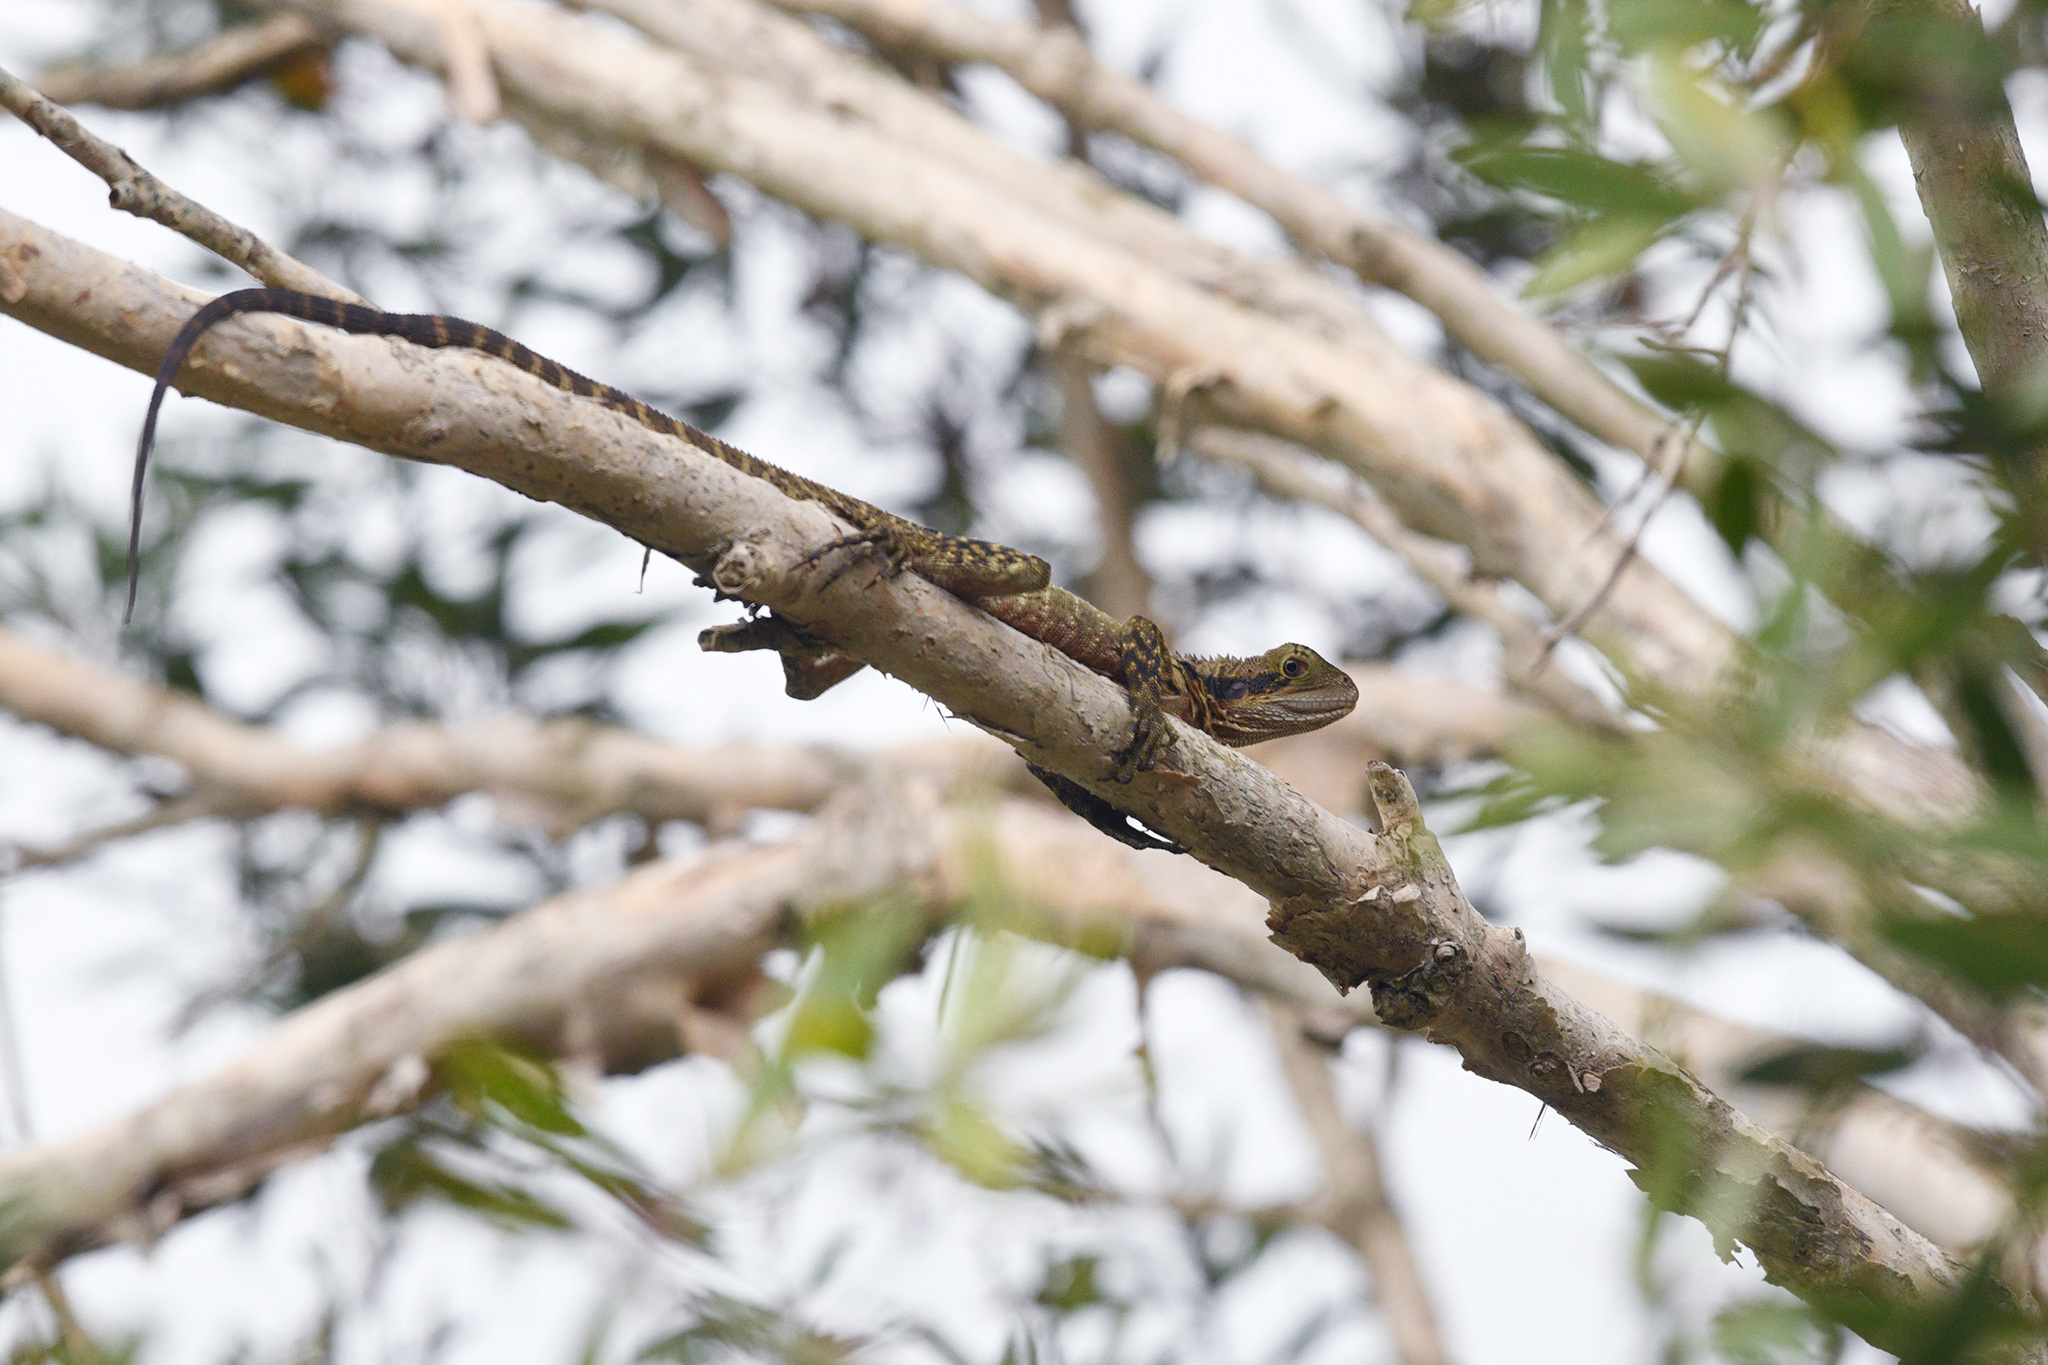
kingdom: Animalia
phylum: Chordata
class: Squamata
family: Agamidae
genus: Intellagama
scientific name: Intellagama lesueurii
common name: Eastern water dragon
